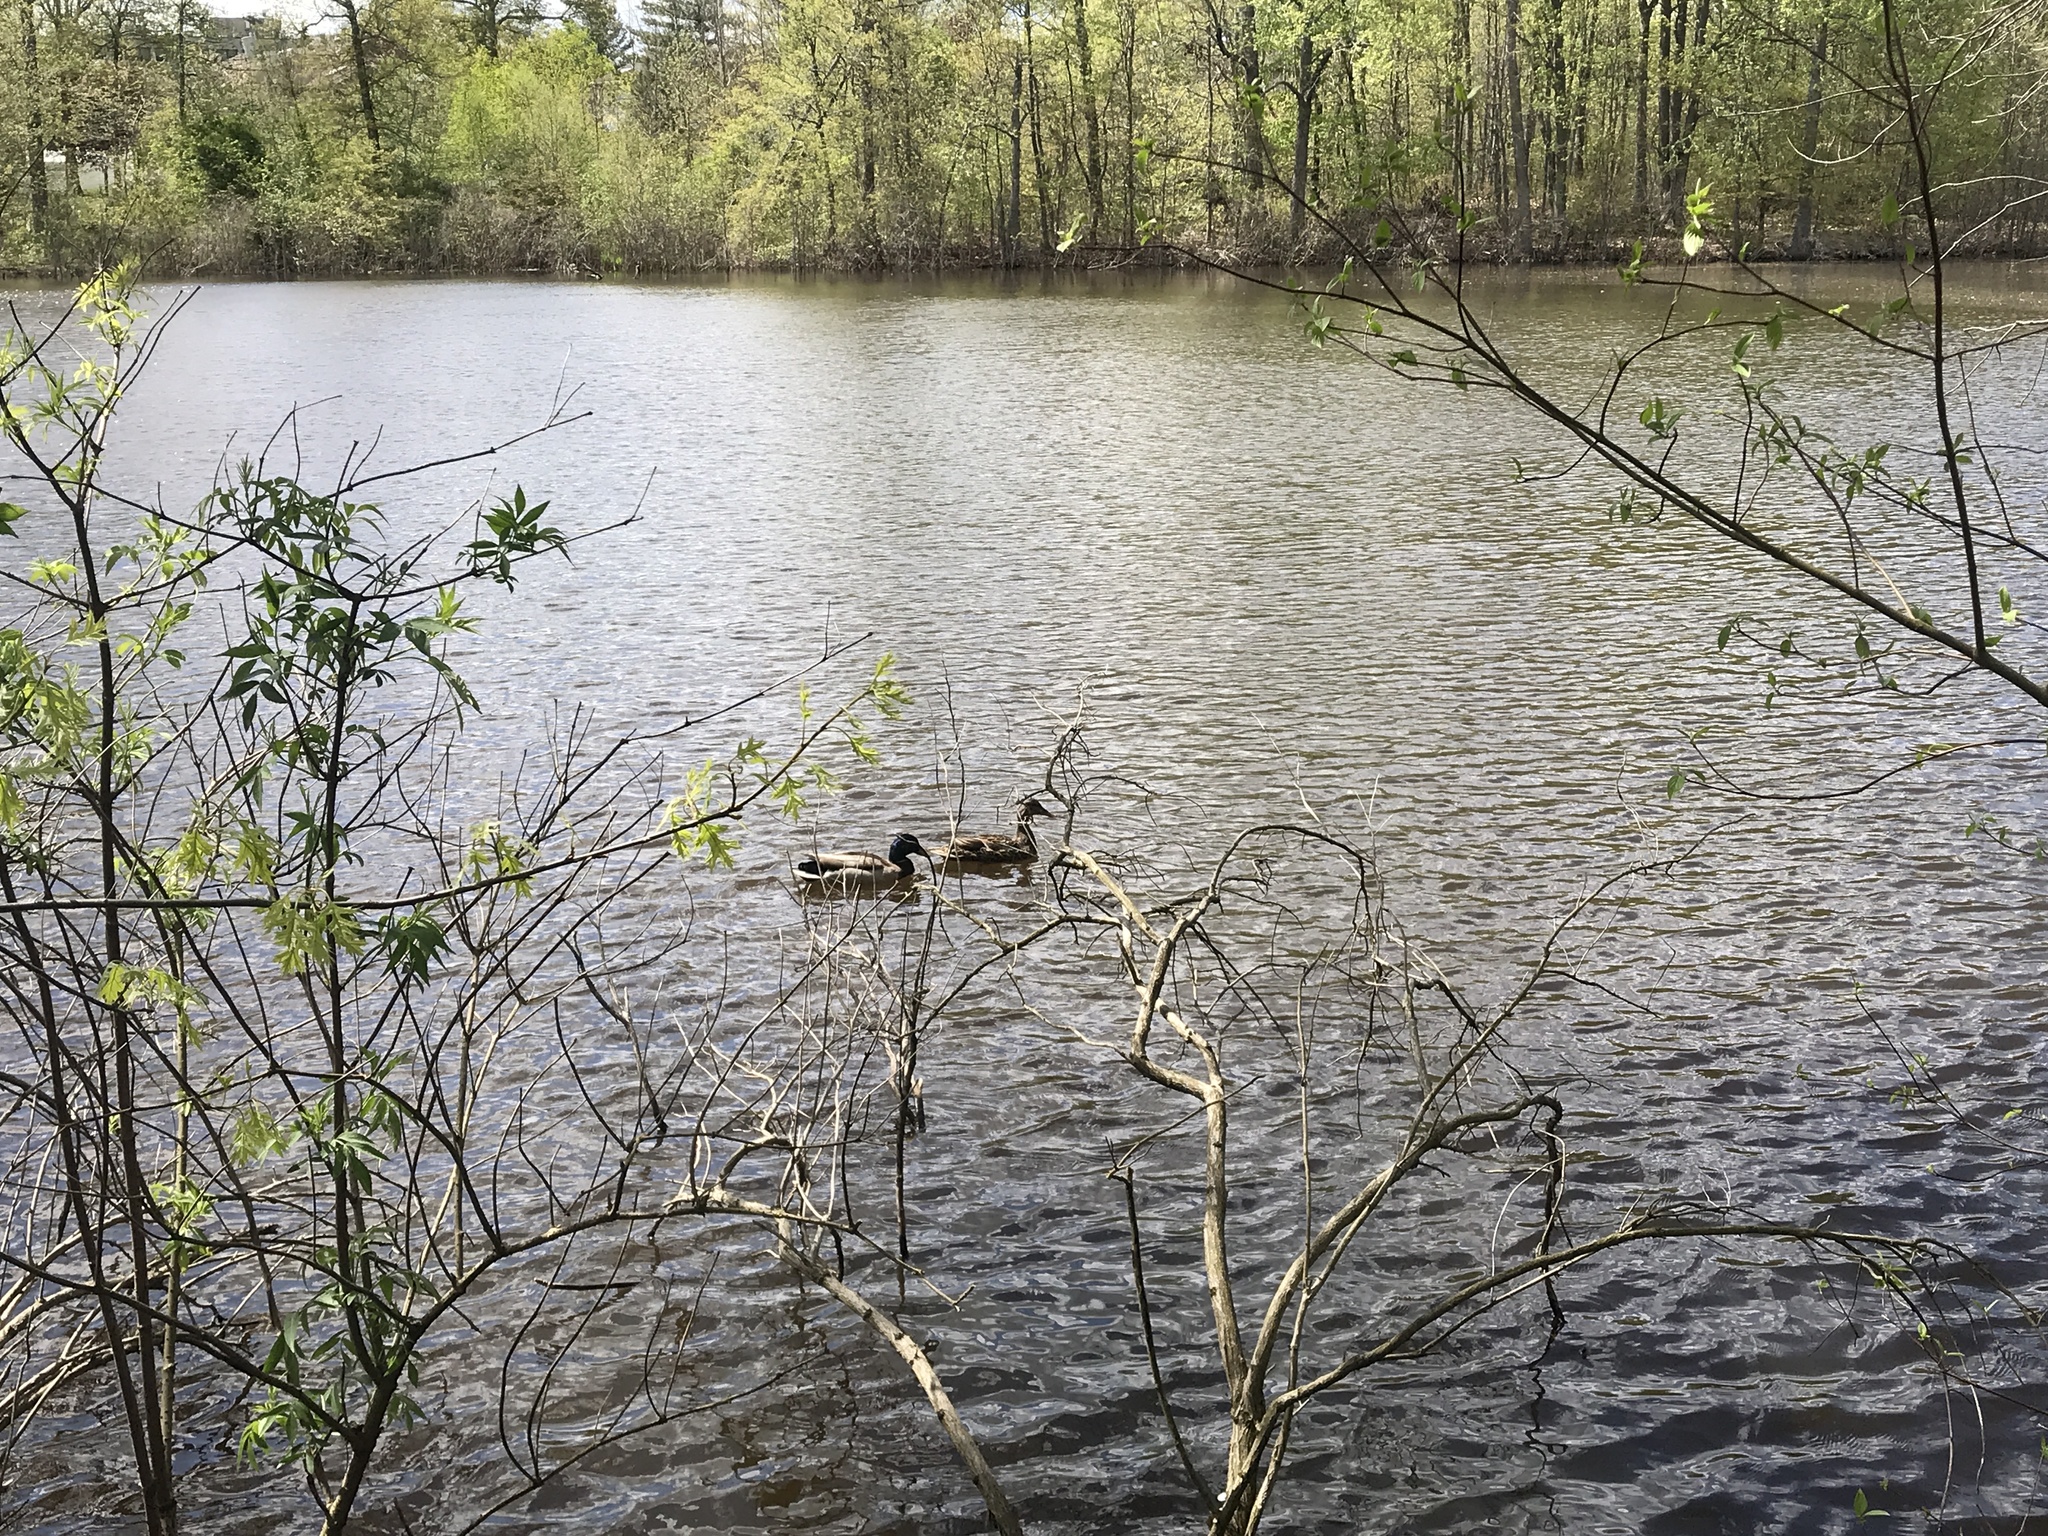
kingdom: Animalia
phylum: Chordata
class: Aves
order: Anseriformes
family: Anatidae
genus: Anas
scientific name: Anas platyrhynchos
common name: Mallard
